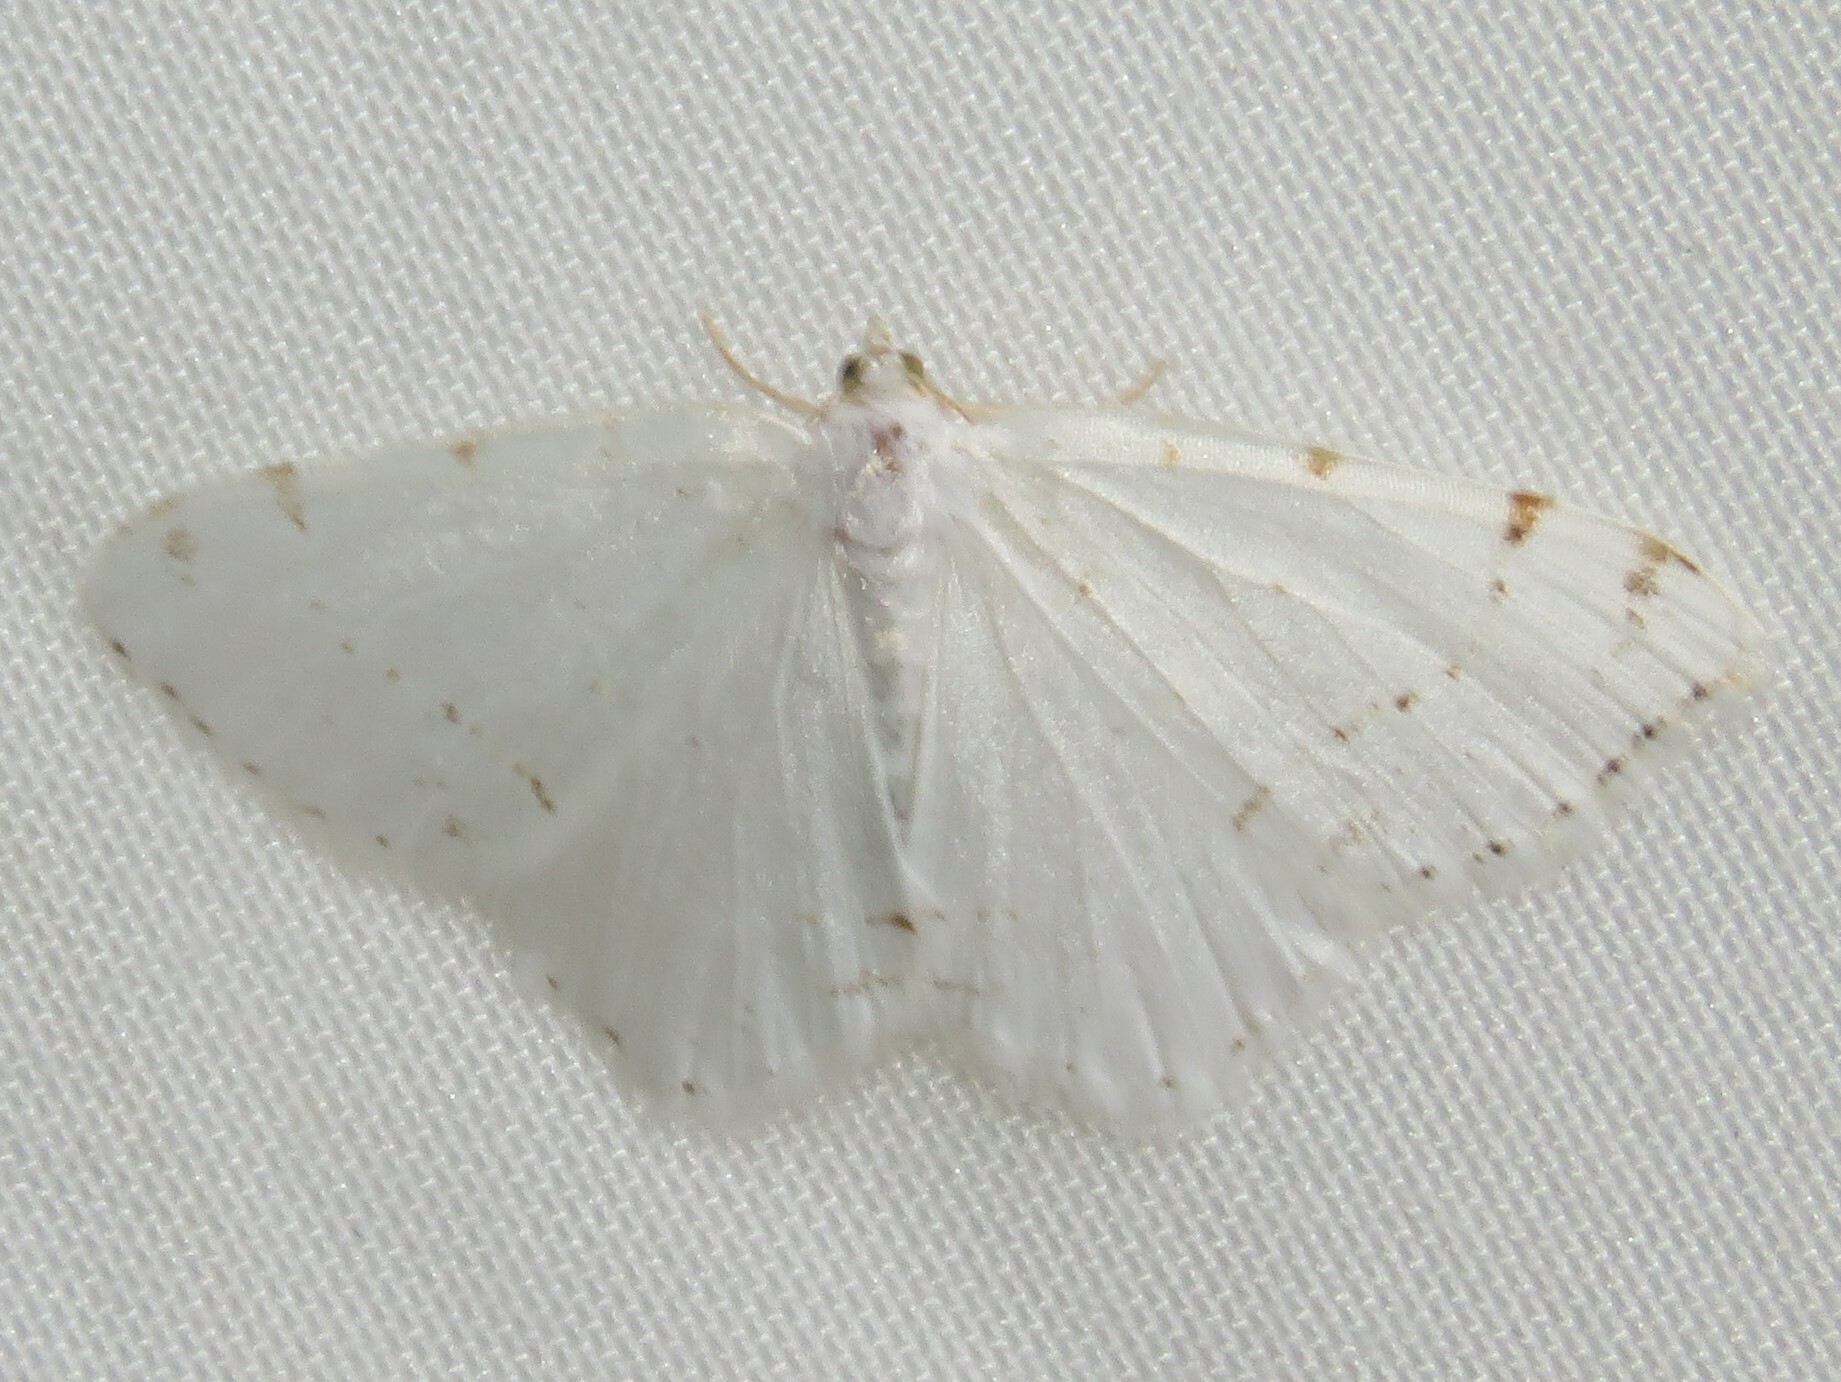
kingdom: Animalia
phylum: Arthropoda
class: Insecta
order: Lepidoptera
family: Geometridae
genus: Macaria
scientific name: Macaria pustularia
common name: Lesser maple spanworm moth
